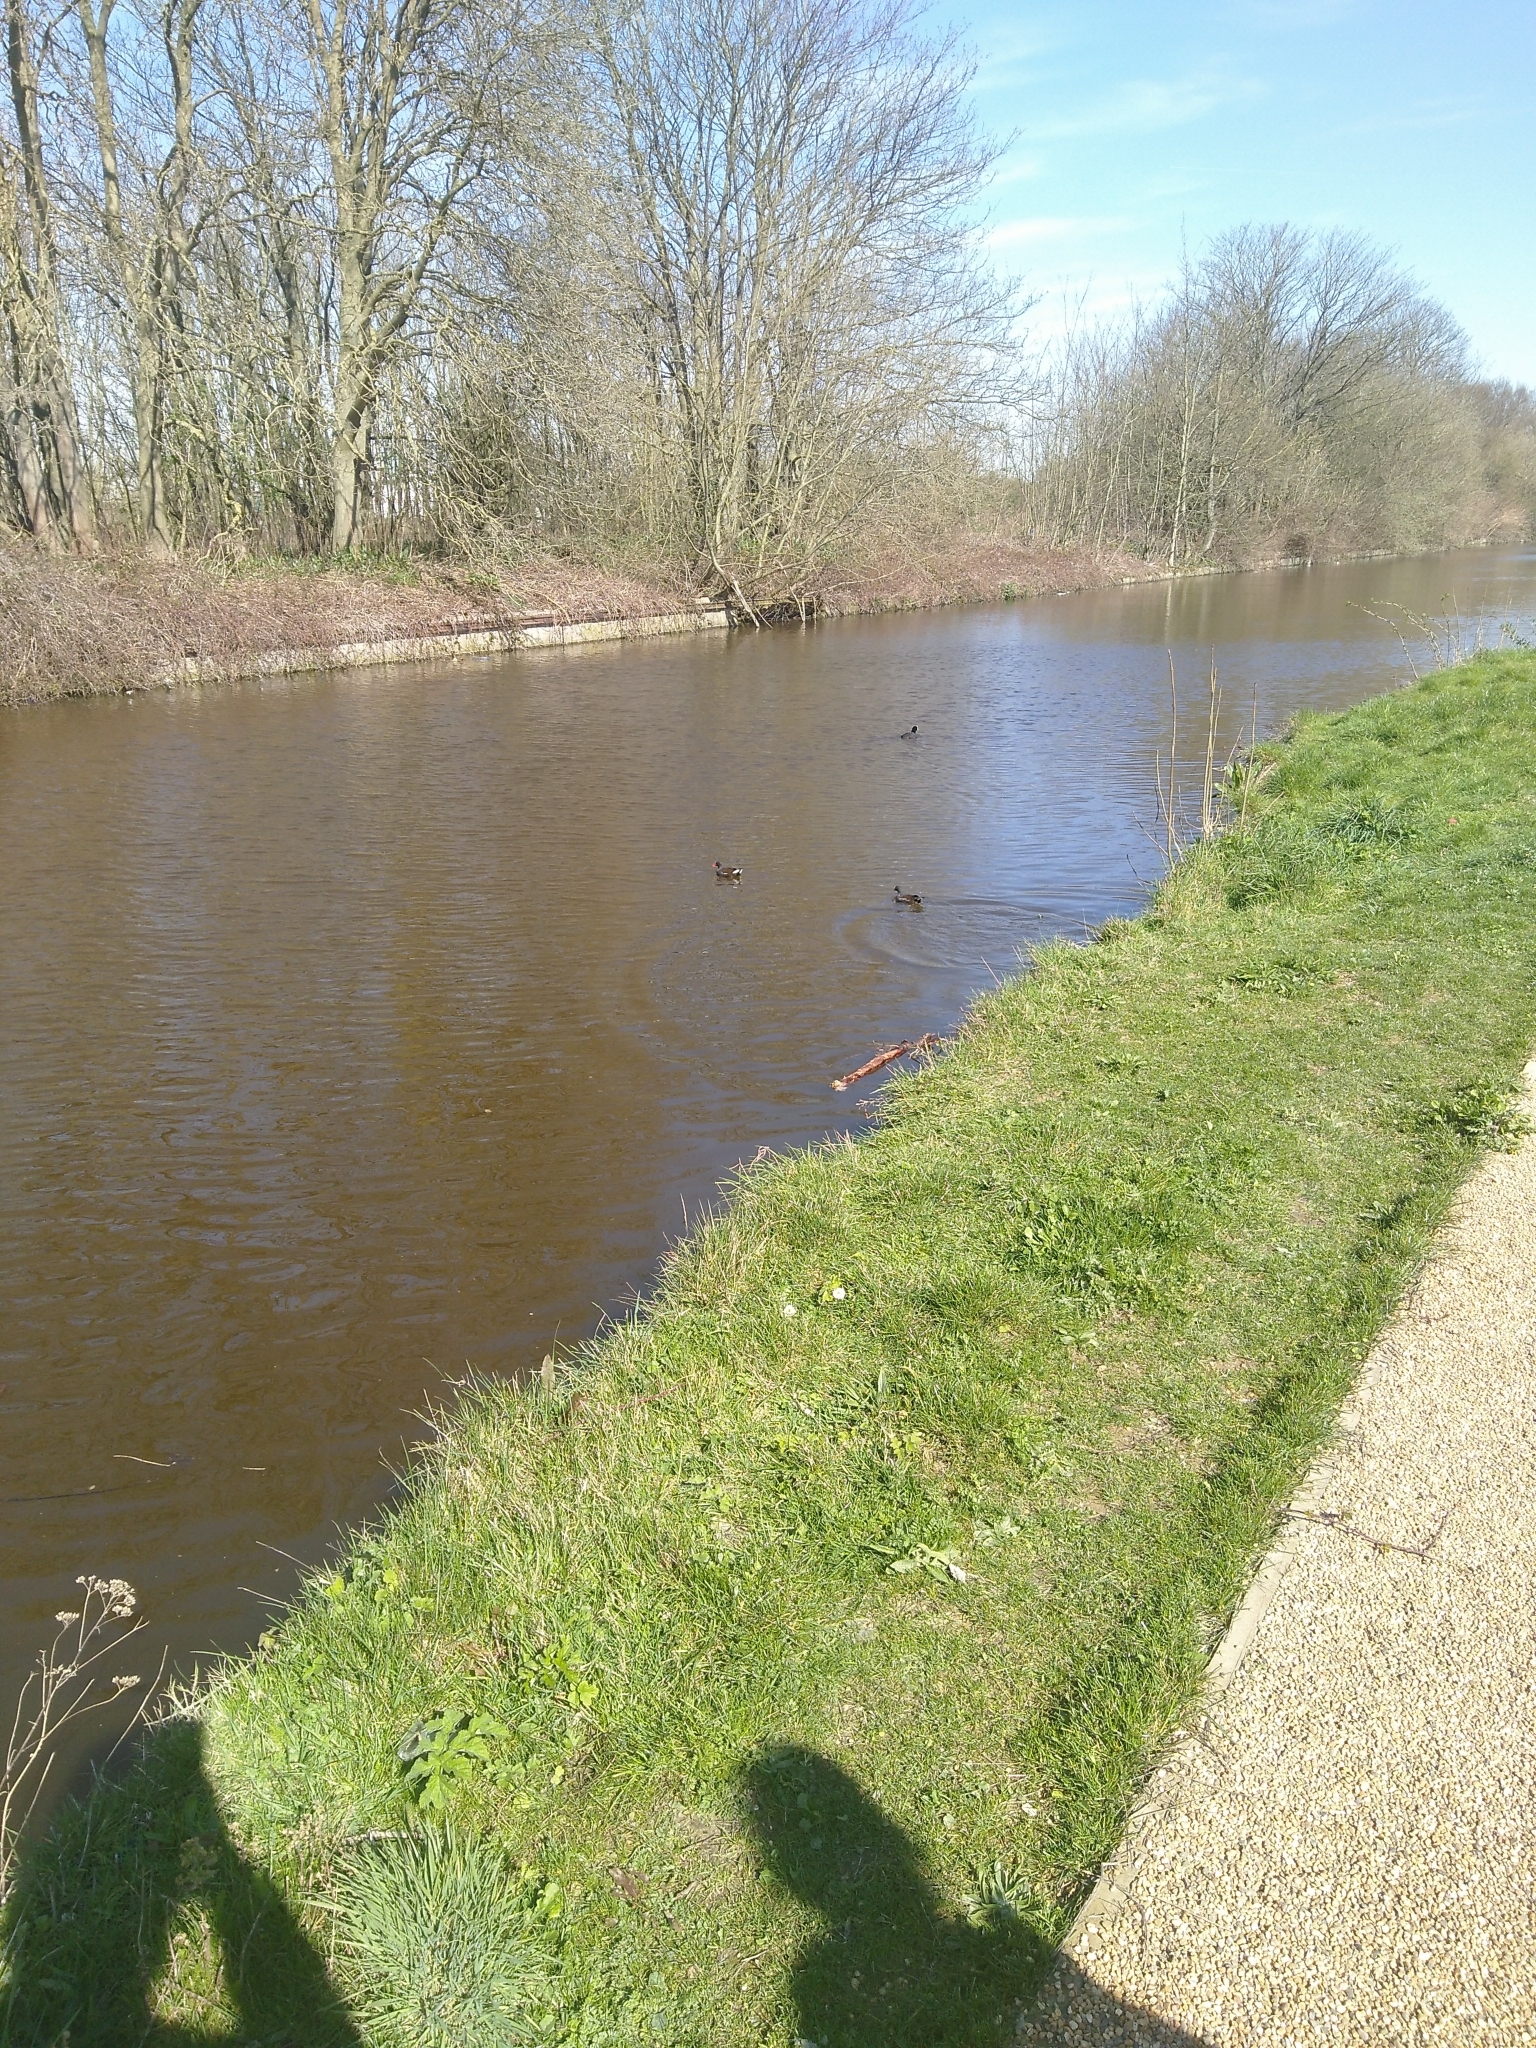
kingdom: Animalia
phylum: Chordata
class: Aves
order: Gruiformes
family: Rallidae
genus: Gallinula
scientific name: Gallinula chloropus
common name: Common moorhen
